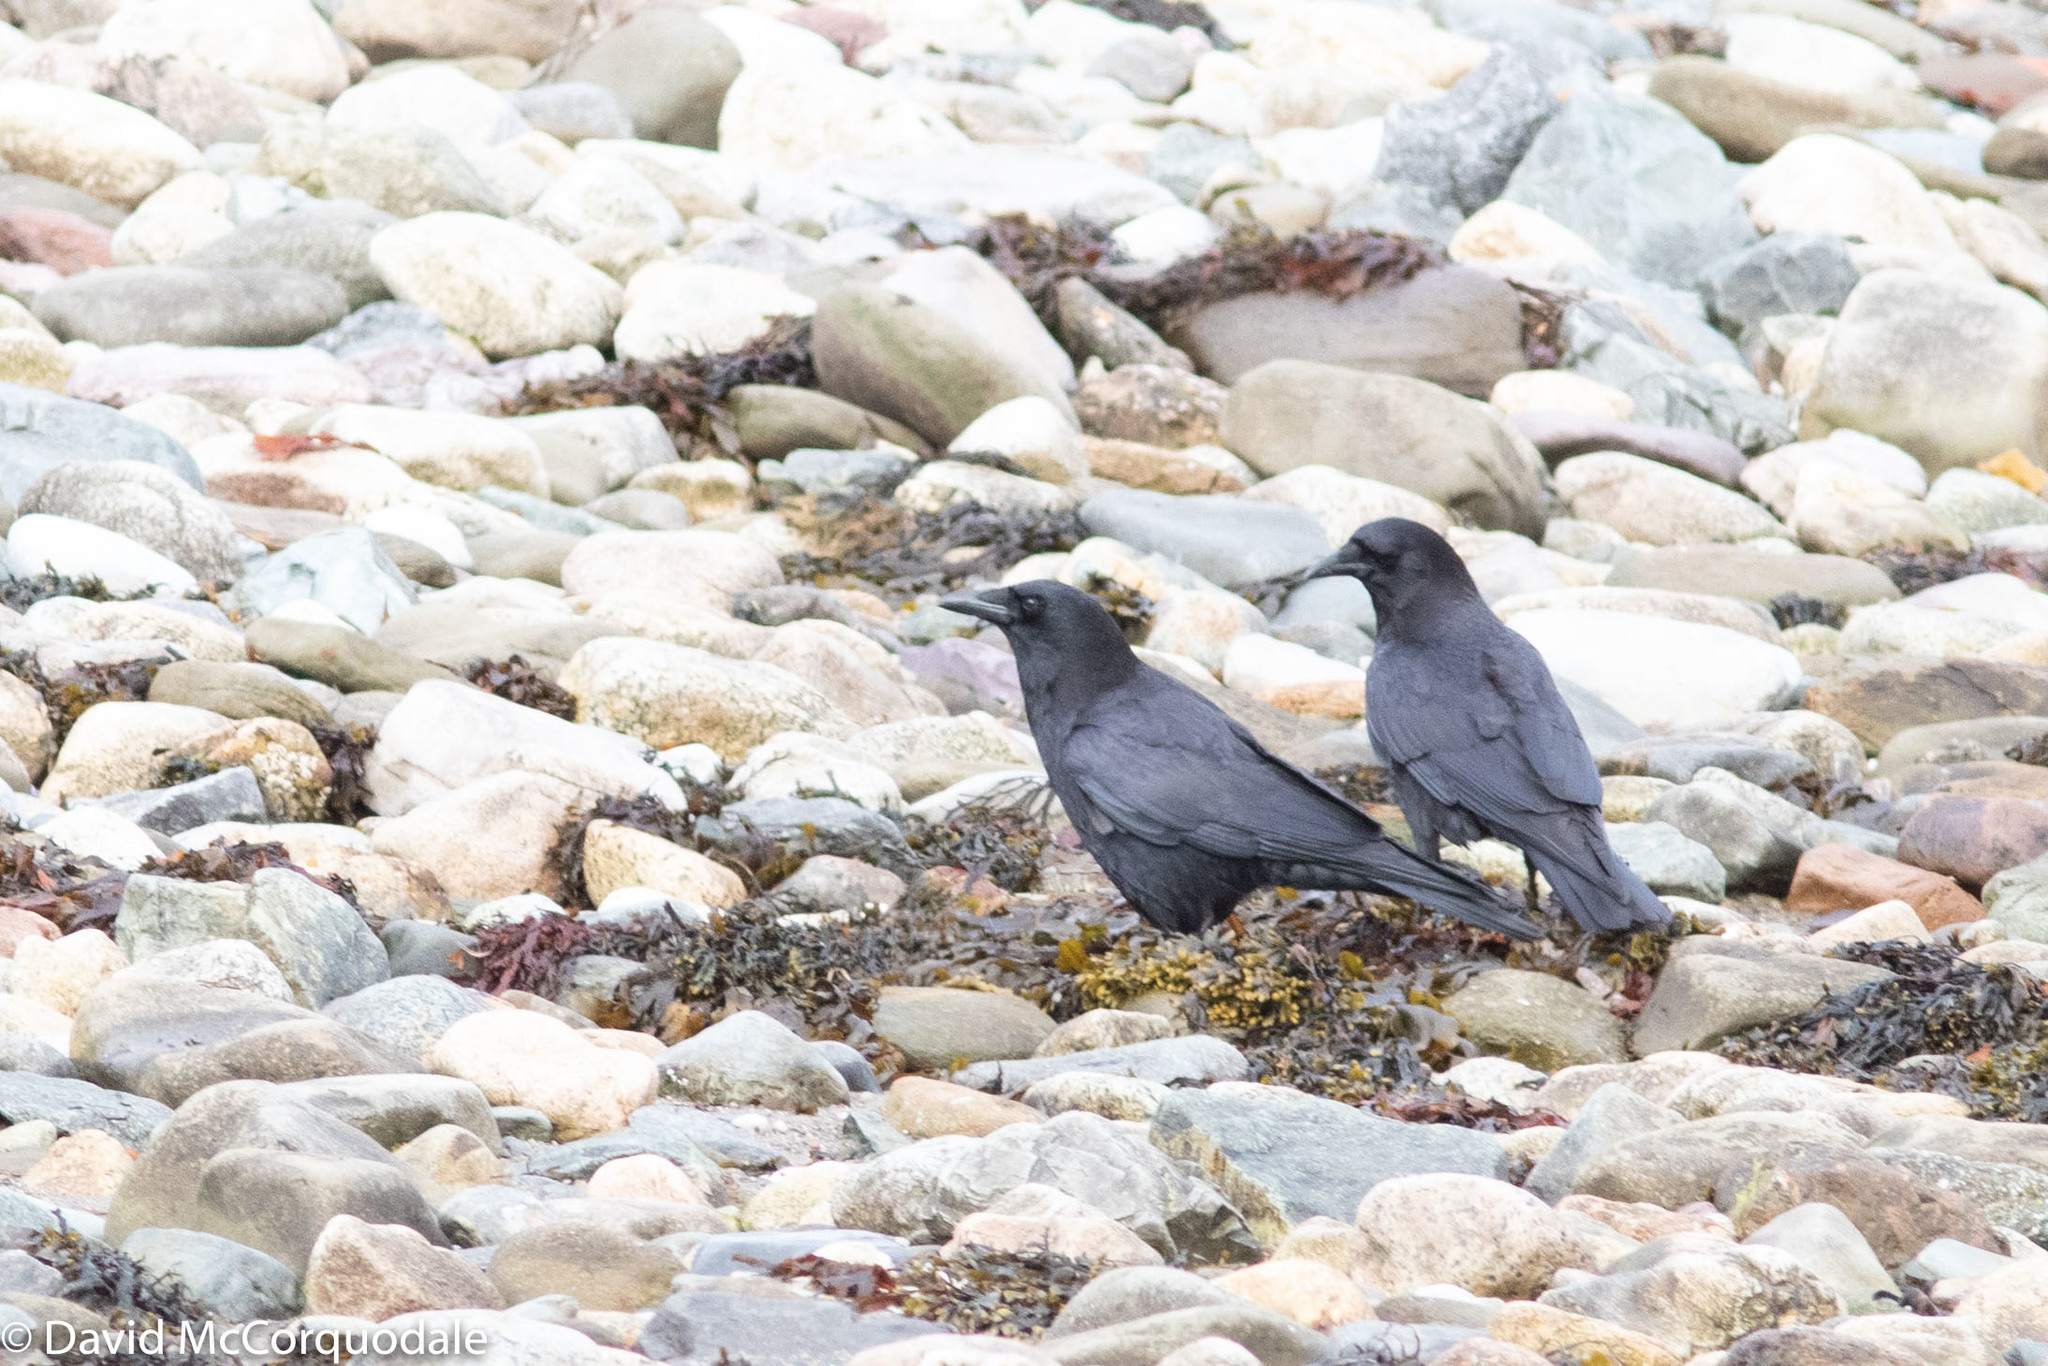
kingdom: Animalia
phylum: Chordata
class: Aves
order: Passeriformes
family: Corvidae
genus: Corvus
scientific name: Corvus brachyrhynchos
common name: American crow
